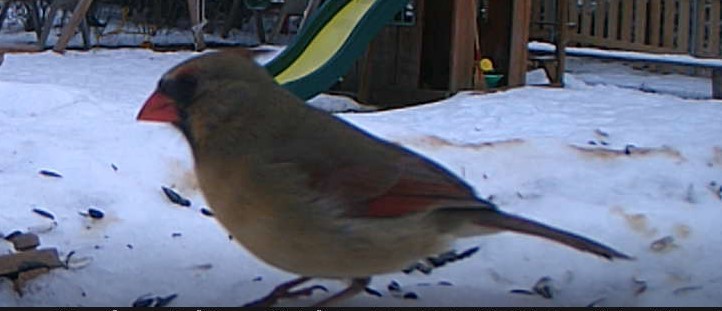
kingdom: Animalia
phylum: Chordata
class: Aves
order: Passeriformes
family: Cardinalidae
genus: Cardinalis
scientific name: Cardinalis cardinalis
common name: Northern cardinal
